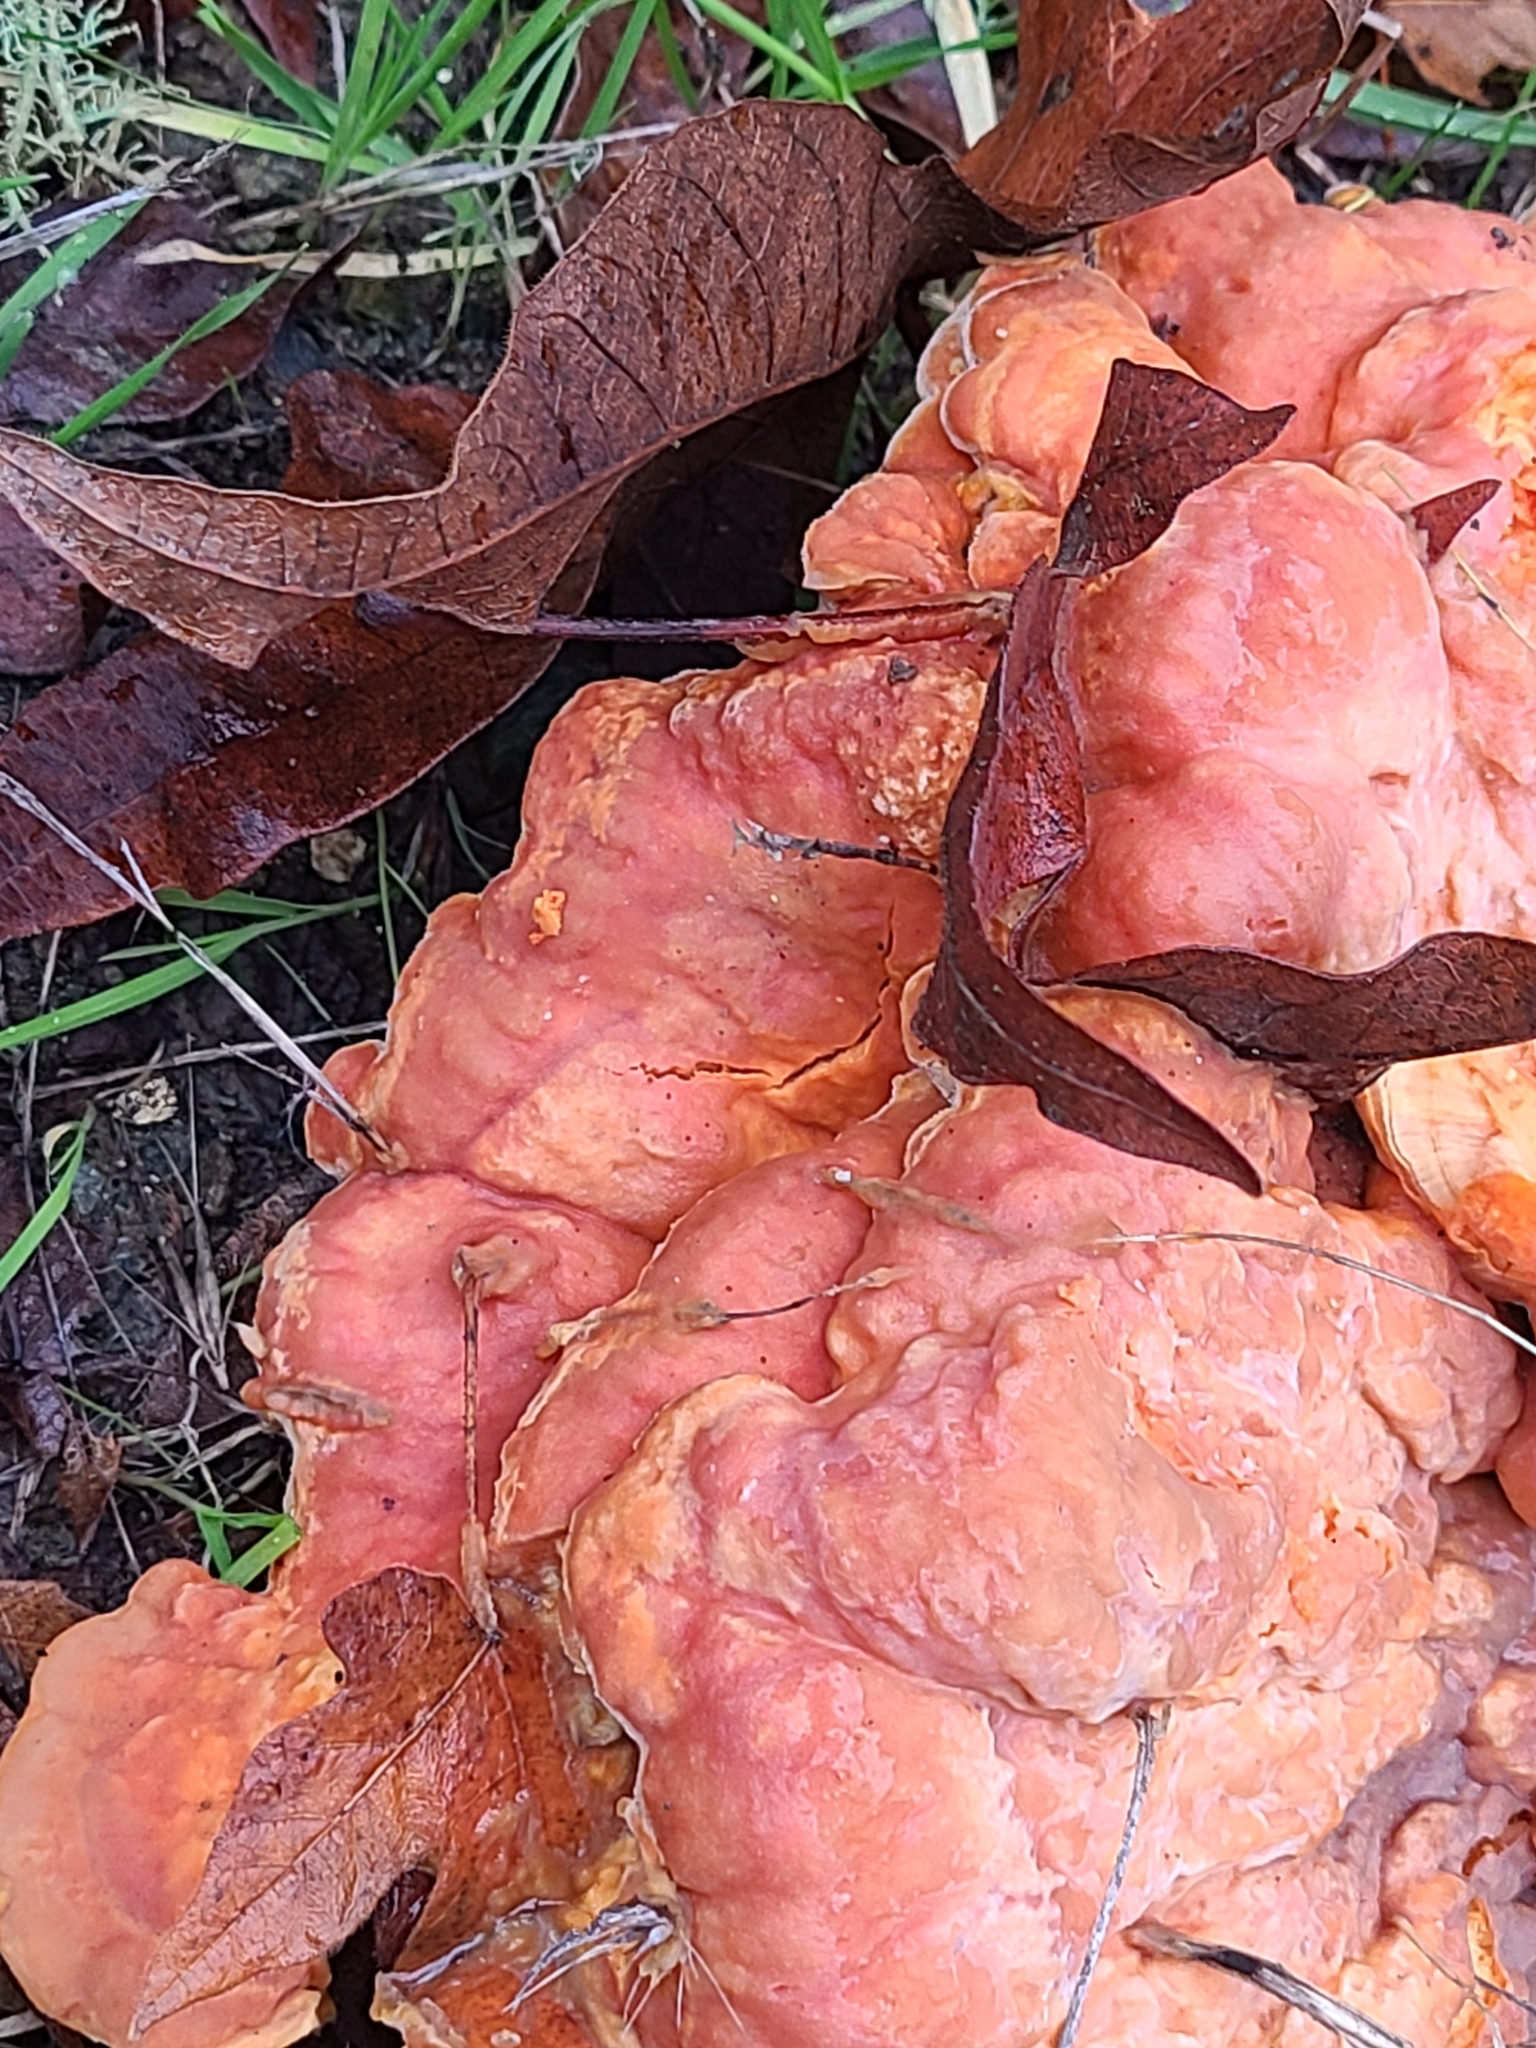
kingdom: Fungi
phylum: Basidiomycota
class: Agaricomycetes
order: Polyporales
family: Laetiporaceae
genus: Laetiporus
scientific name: Laetiporus gilbertsonii
